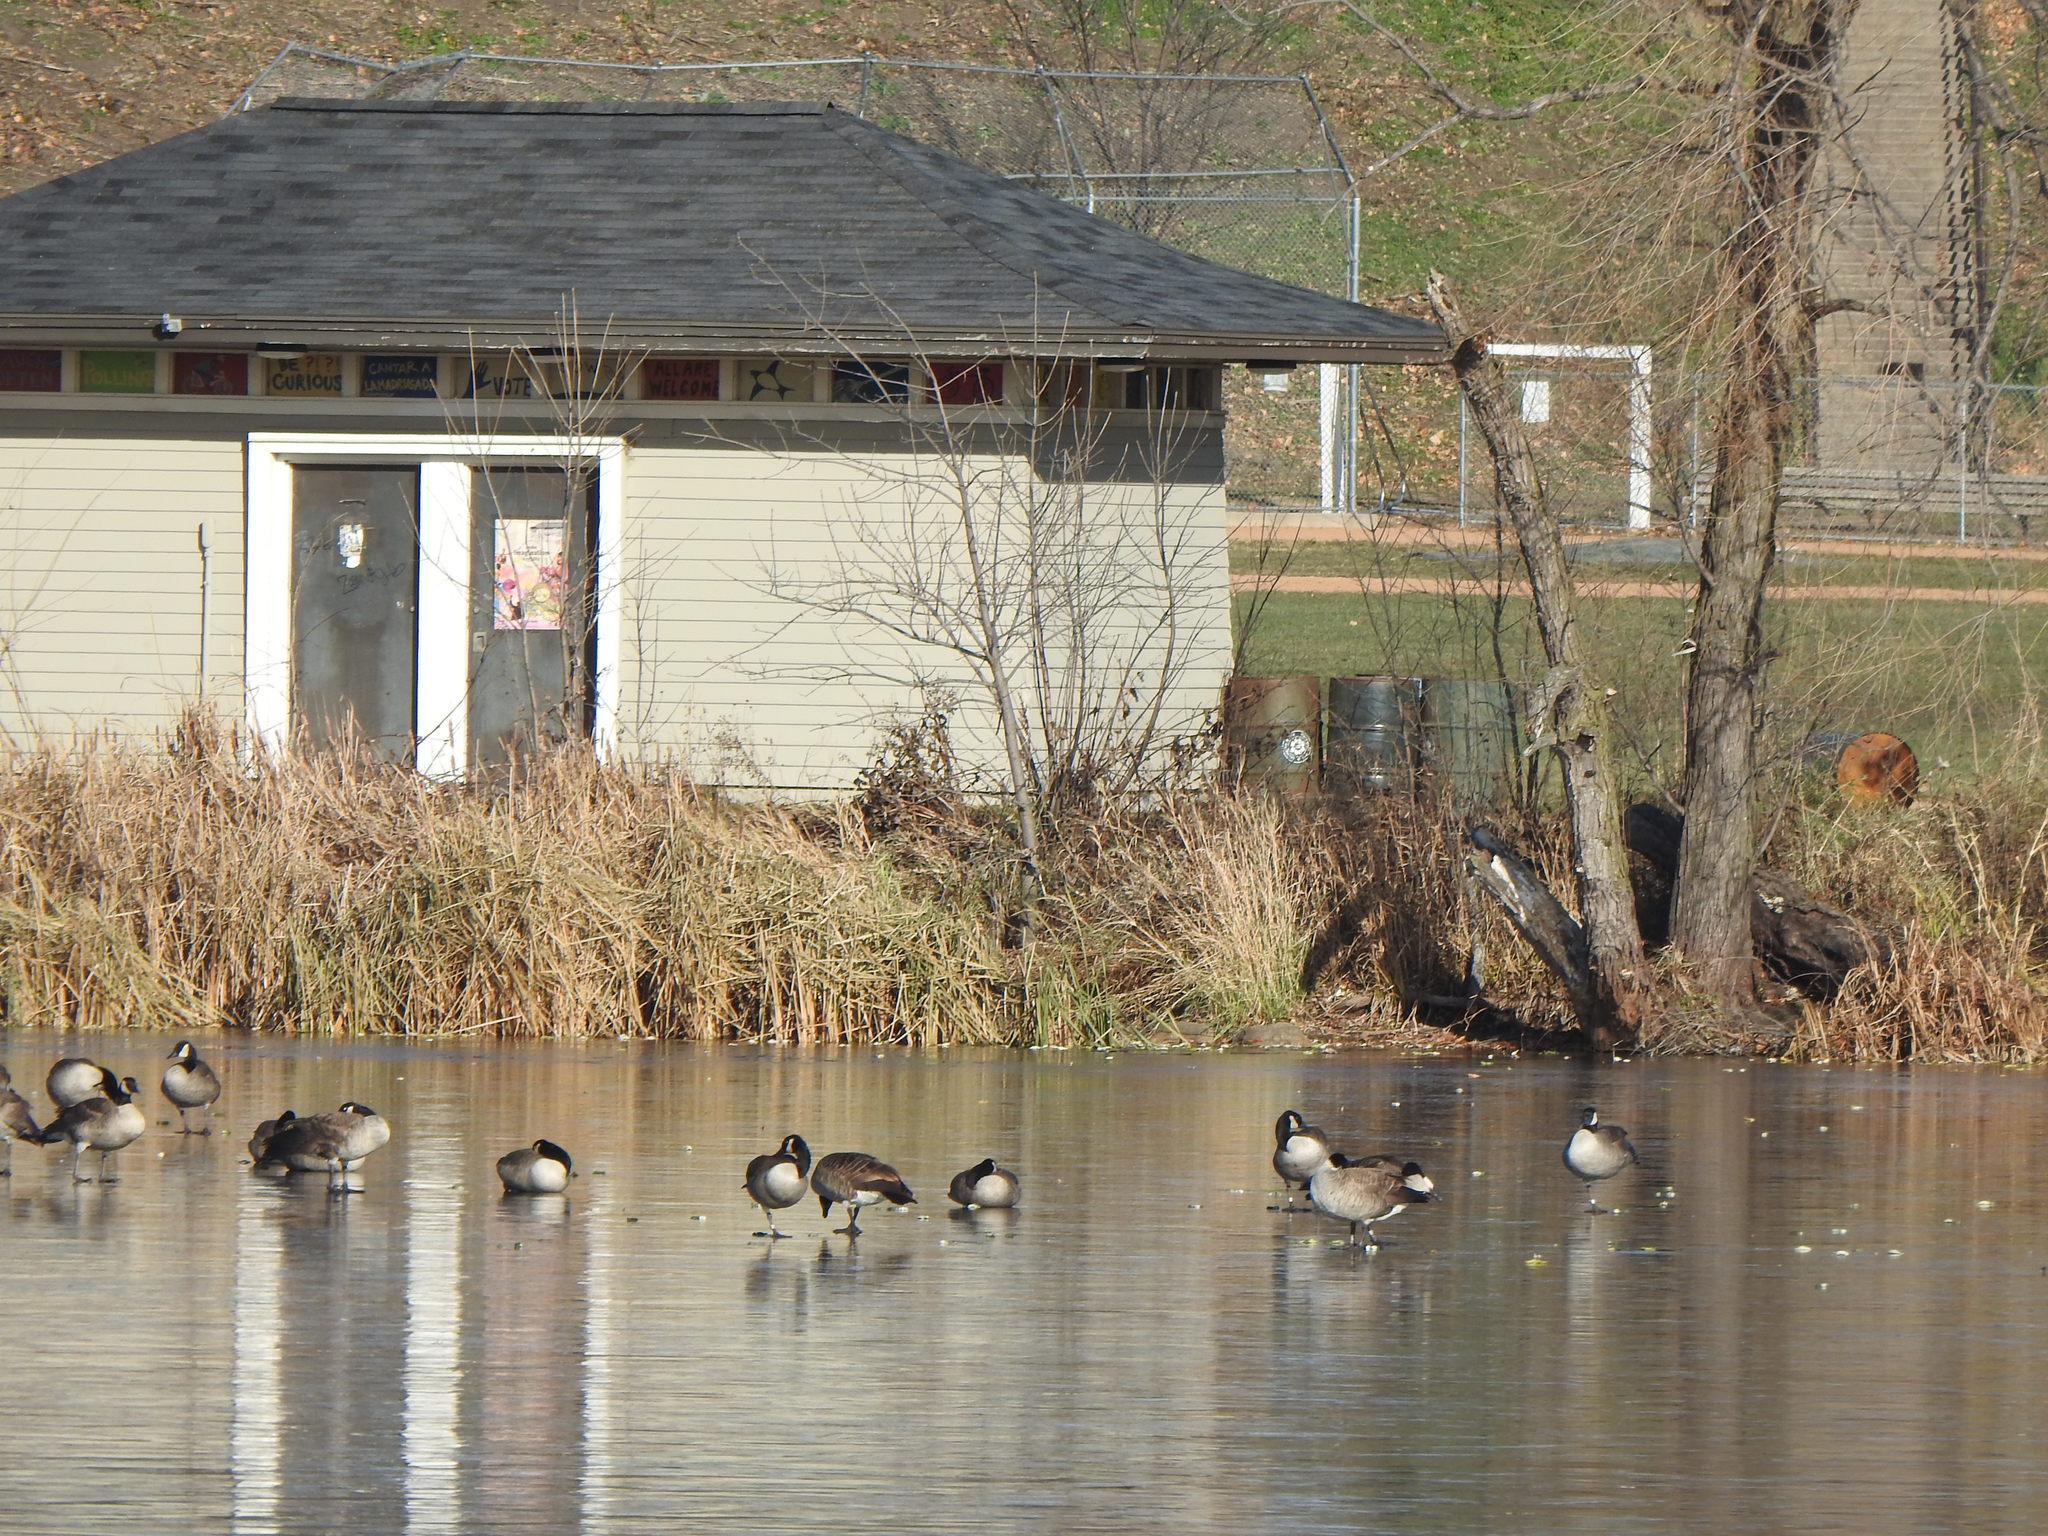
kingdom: Animalia
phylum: Chordata
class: Aves
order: Anseriformes
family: Anatidae
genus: Branta
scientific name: Branta canadensis
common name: Canada goose
